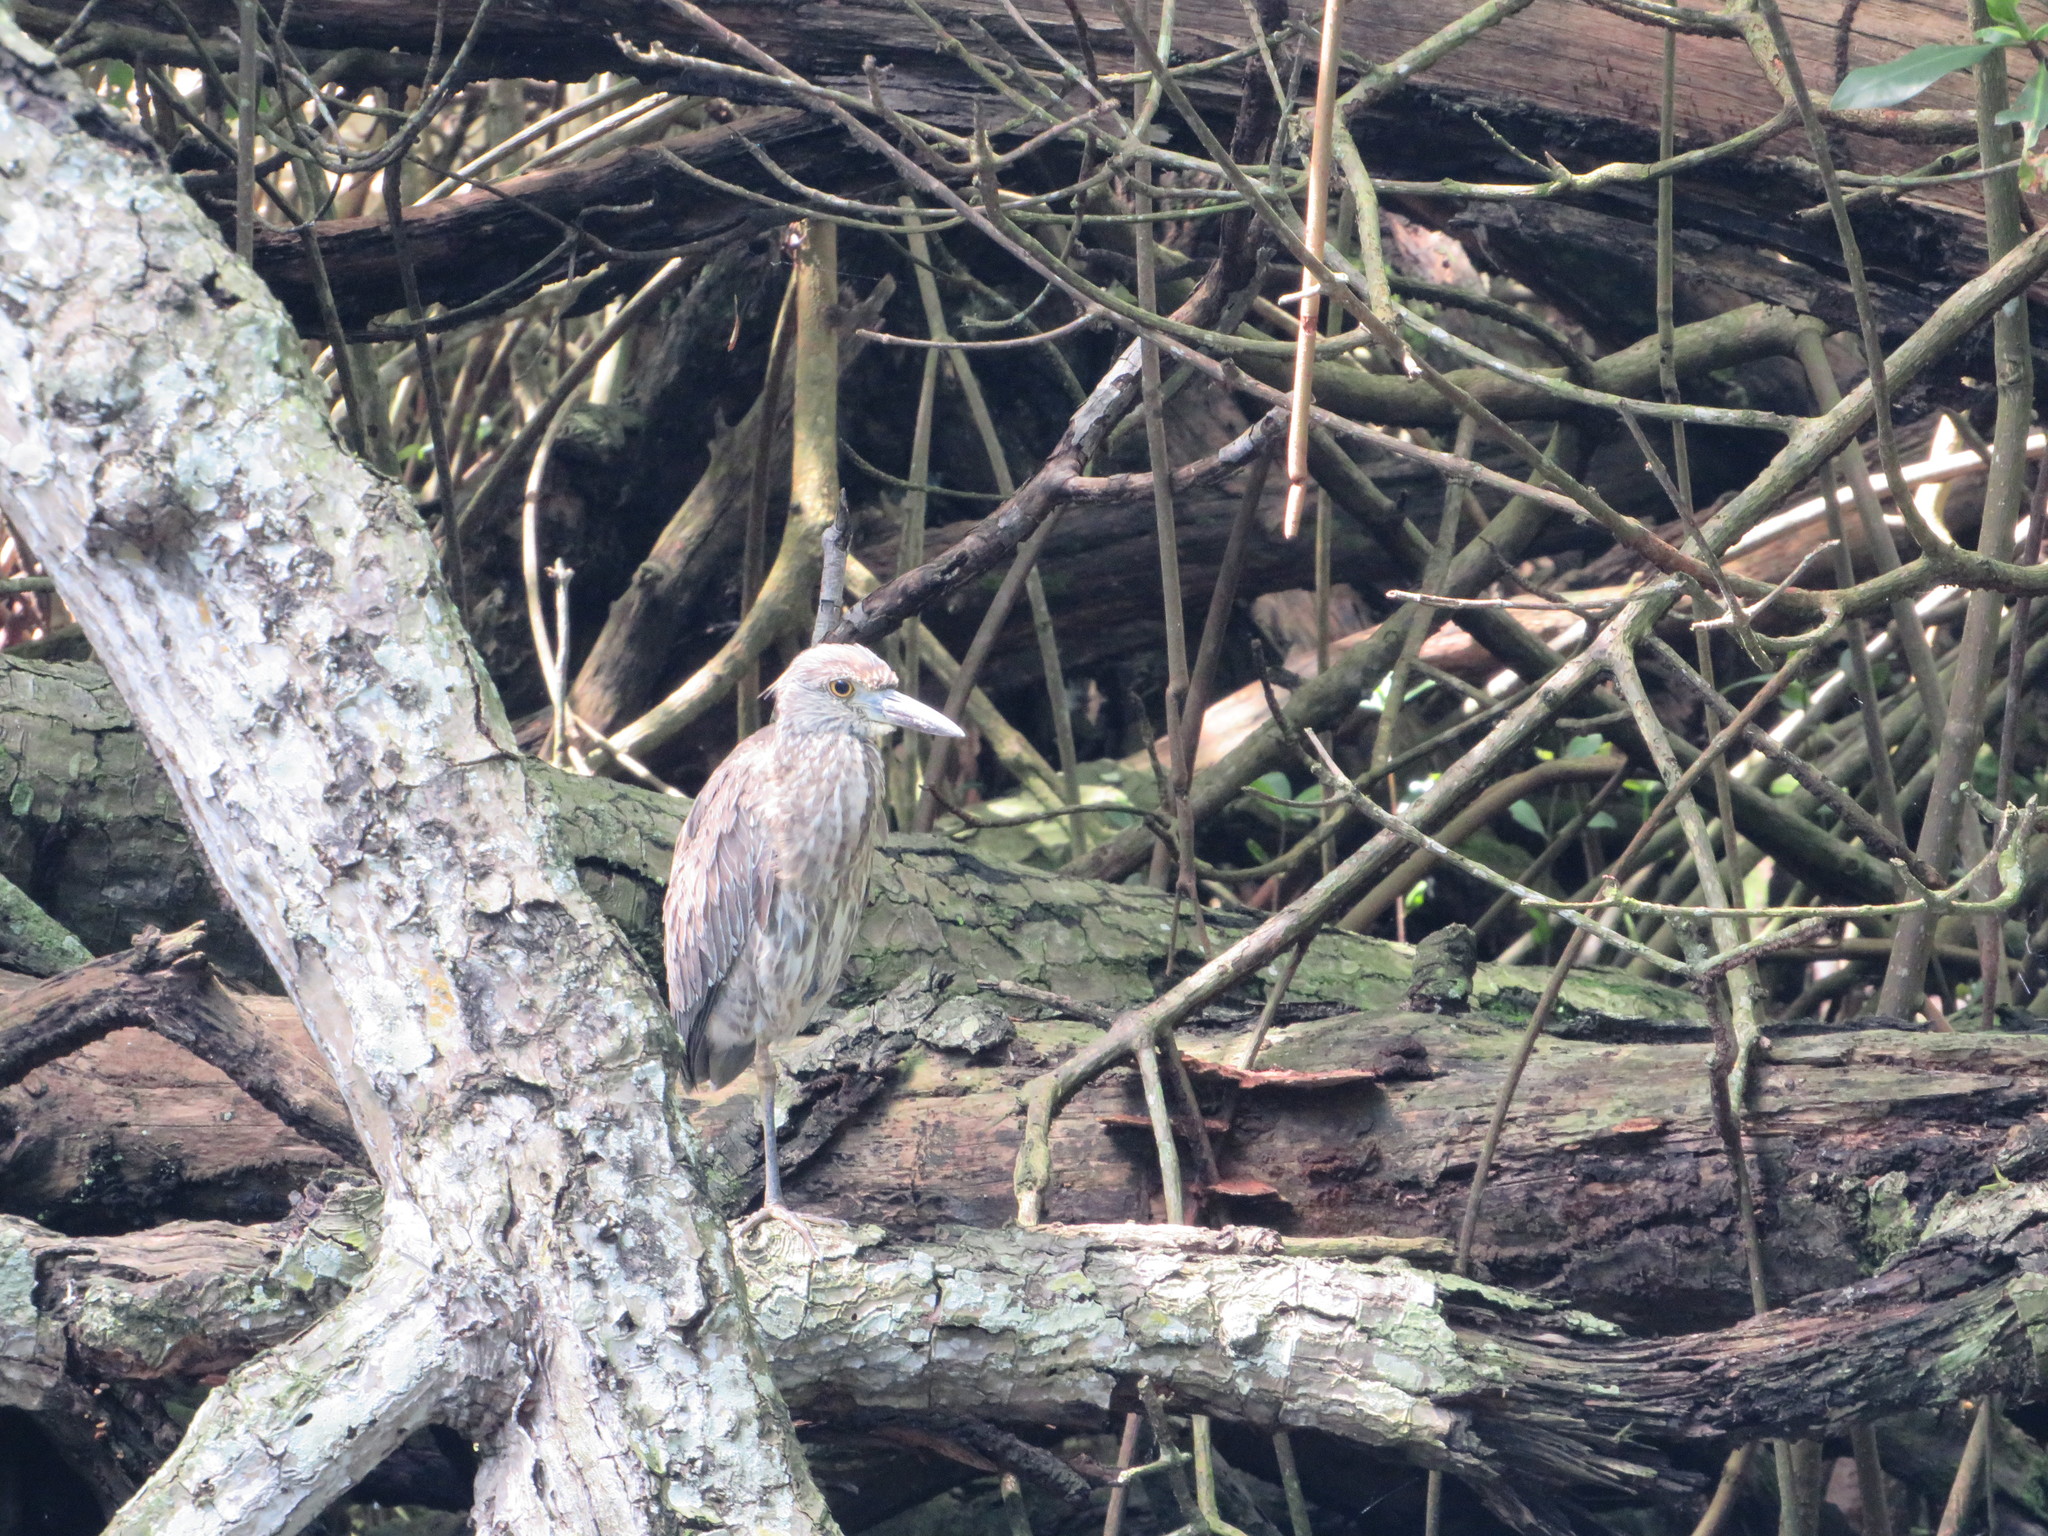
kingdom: Animalia
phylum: Chordata
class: Aves
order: Pelecaniformes
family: Ardeidae
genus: Nyctanassa
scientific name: Nyctanassa violacea
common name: Yellow-crowned night heron
